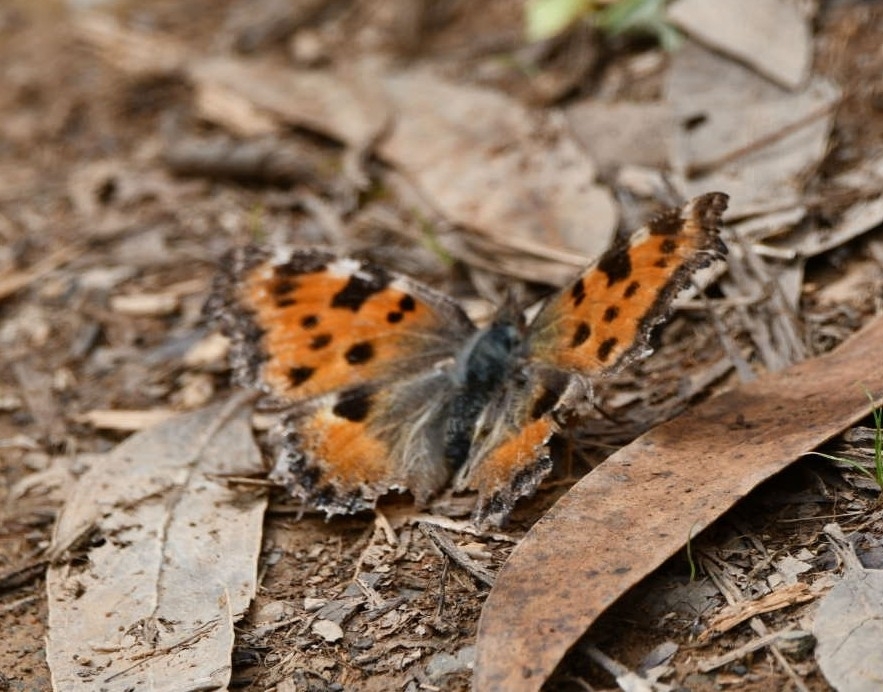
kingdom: Animalia
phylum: Arthropoda
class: Insecta
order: Lepidoptera
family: Nymphalidae
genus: Nymphalis
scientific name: Nymphalis polychloros
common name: Large tortoiseshell
